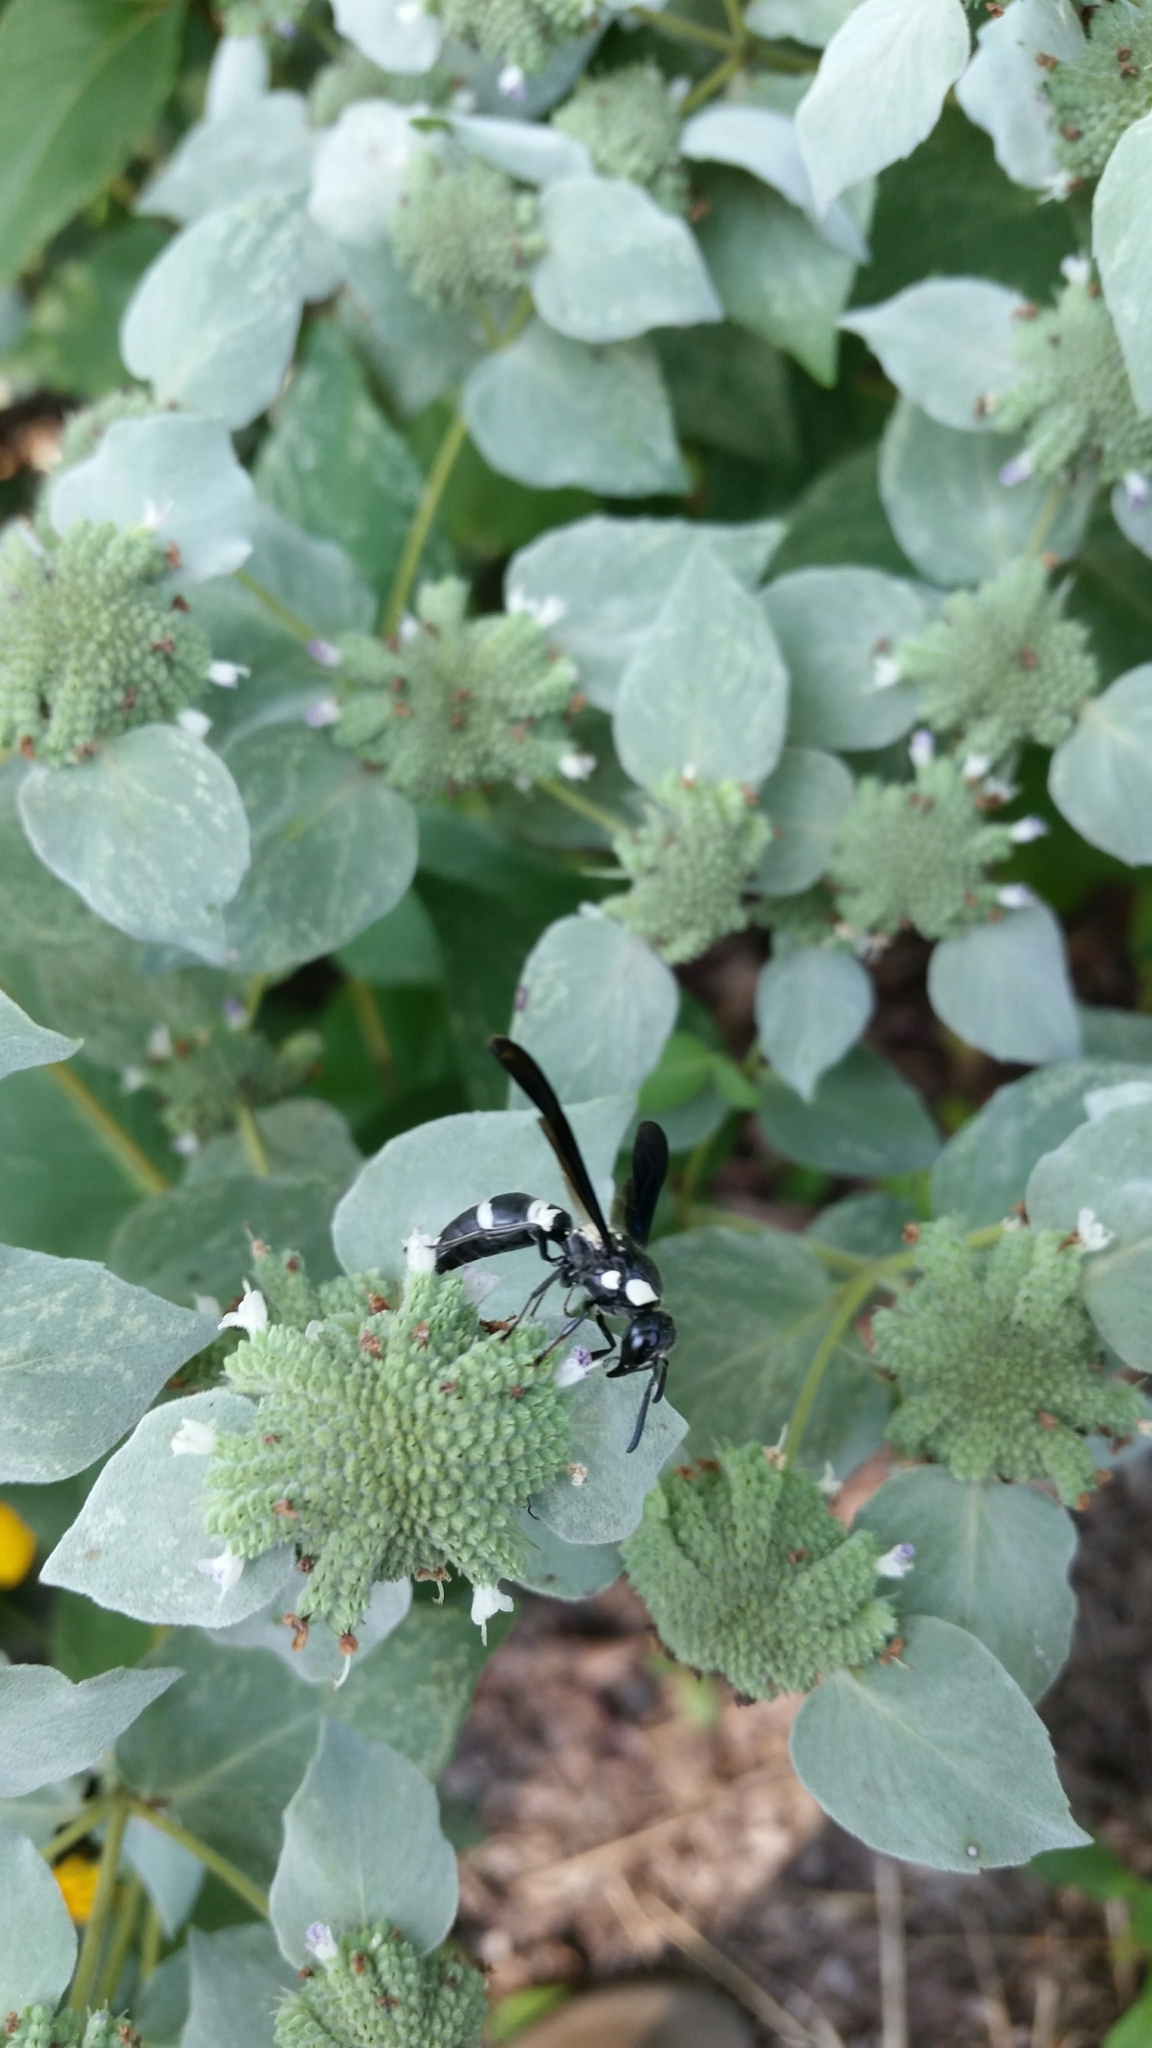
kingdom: Animalia
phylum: Arthropoda
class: Insecta
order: Hymenoptera
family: Eumenidae
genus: Pseudodynerus
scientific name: Pseudodynerus quadrisectus
